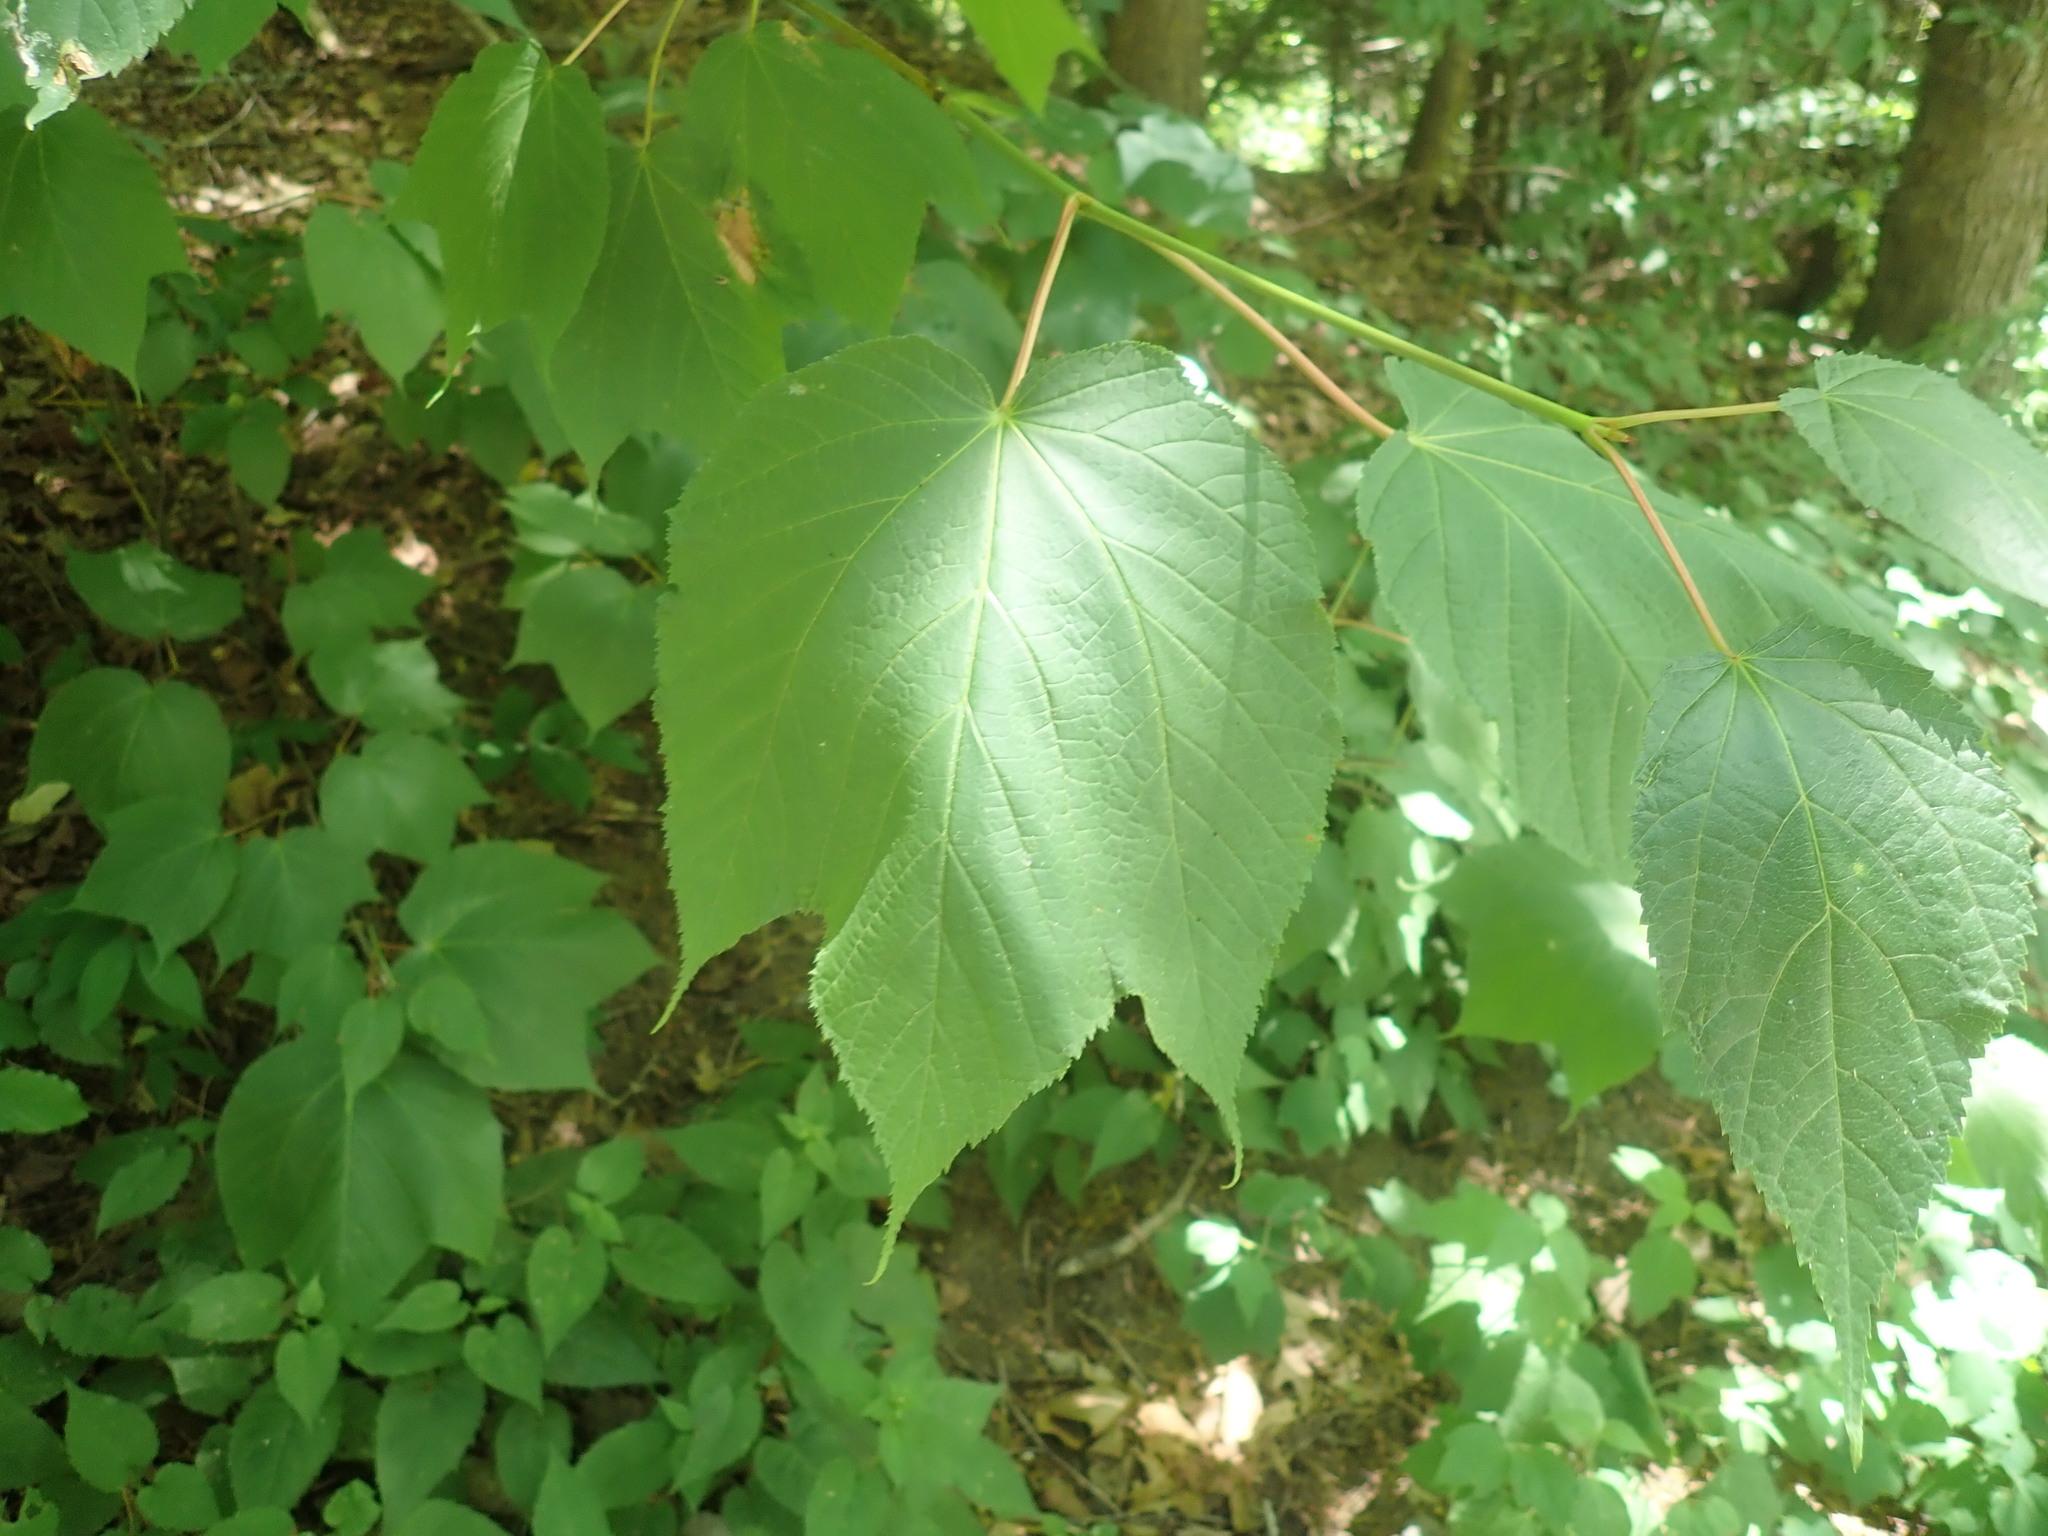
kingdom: Plantae
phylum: Tracheophyta
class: Magnoliopsida
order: Sapindales
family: Sapindaceae
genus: Acer
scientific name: Acer pensylvanicum
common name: Moosewood
